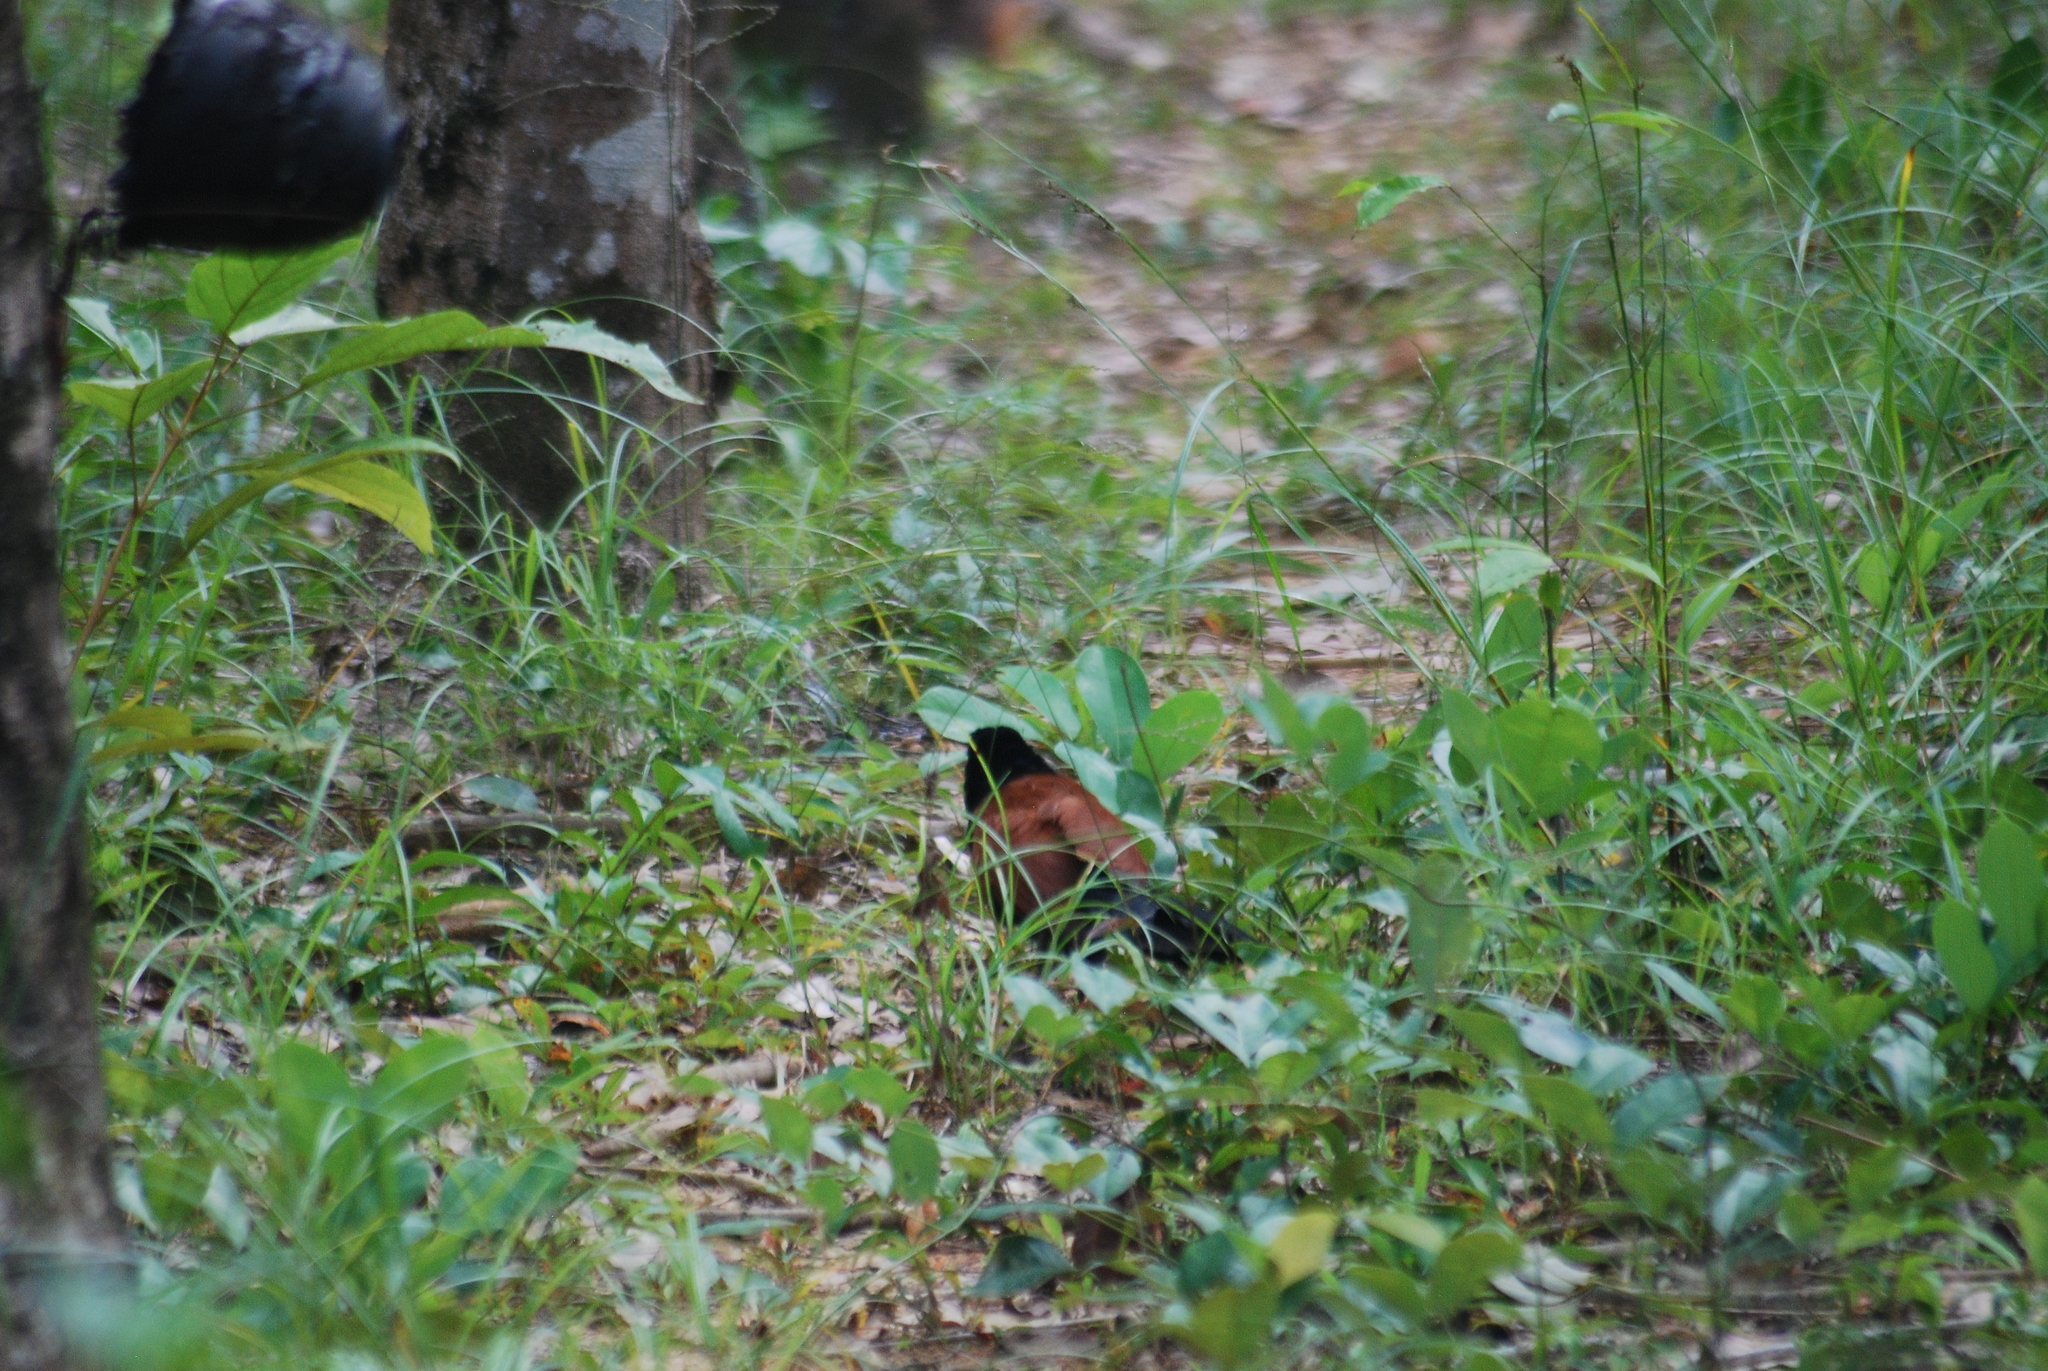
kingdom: Animalia
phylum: Chordata
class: Aves
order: Cuculiformes
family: Cuculidae
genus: Centropus
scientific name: Centropus sinensis
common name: Greater coucal
